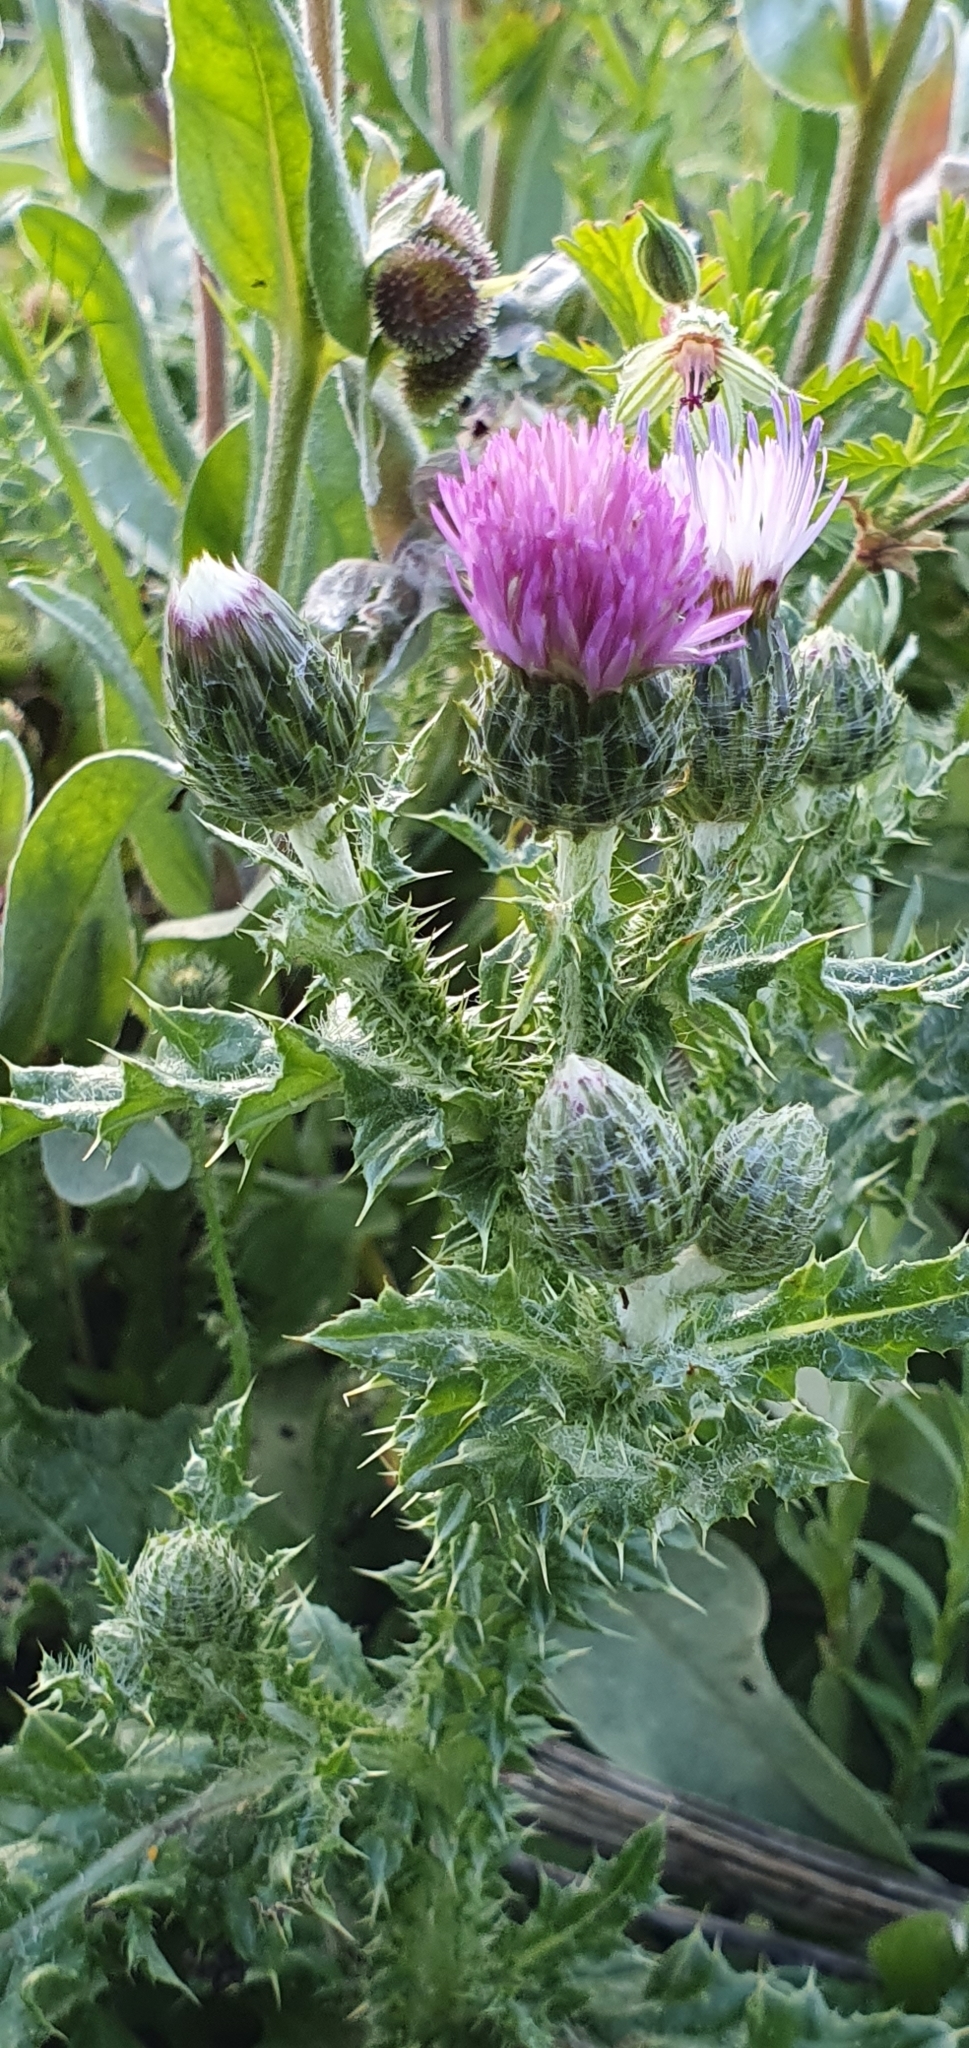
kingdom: Plantae
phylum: Tracheophyta
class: Magnoliopsida
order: Asterales
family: Asteraceae
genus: Carduus
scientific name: Carduus spachianus
